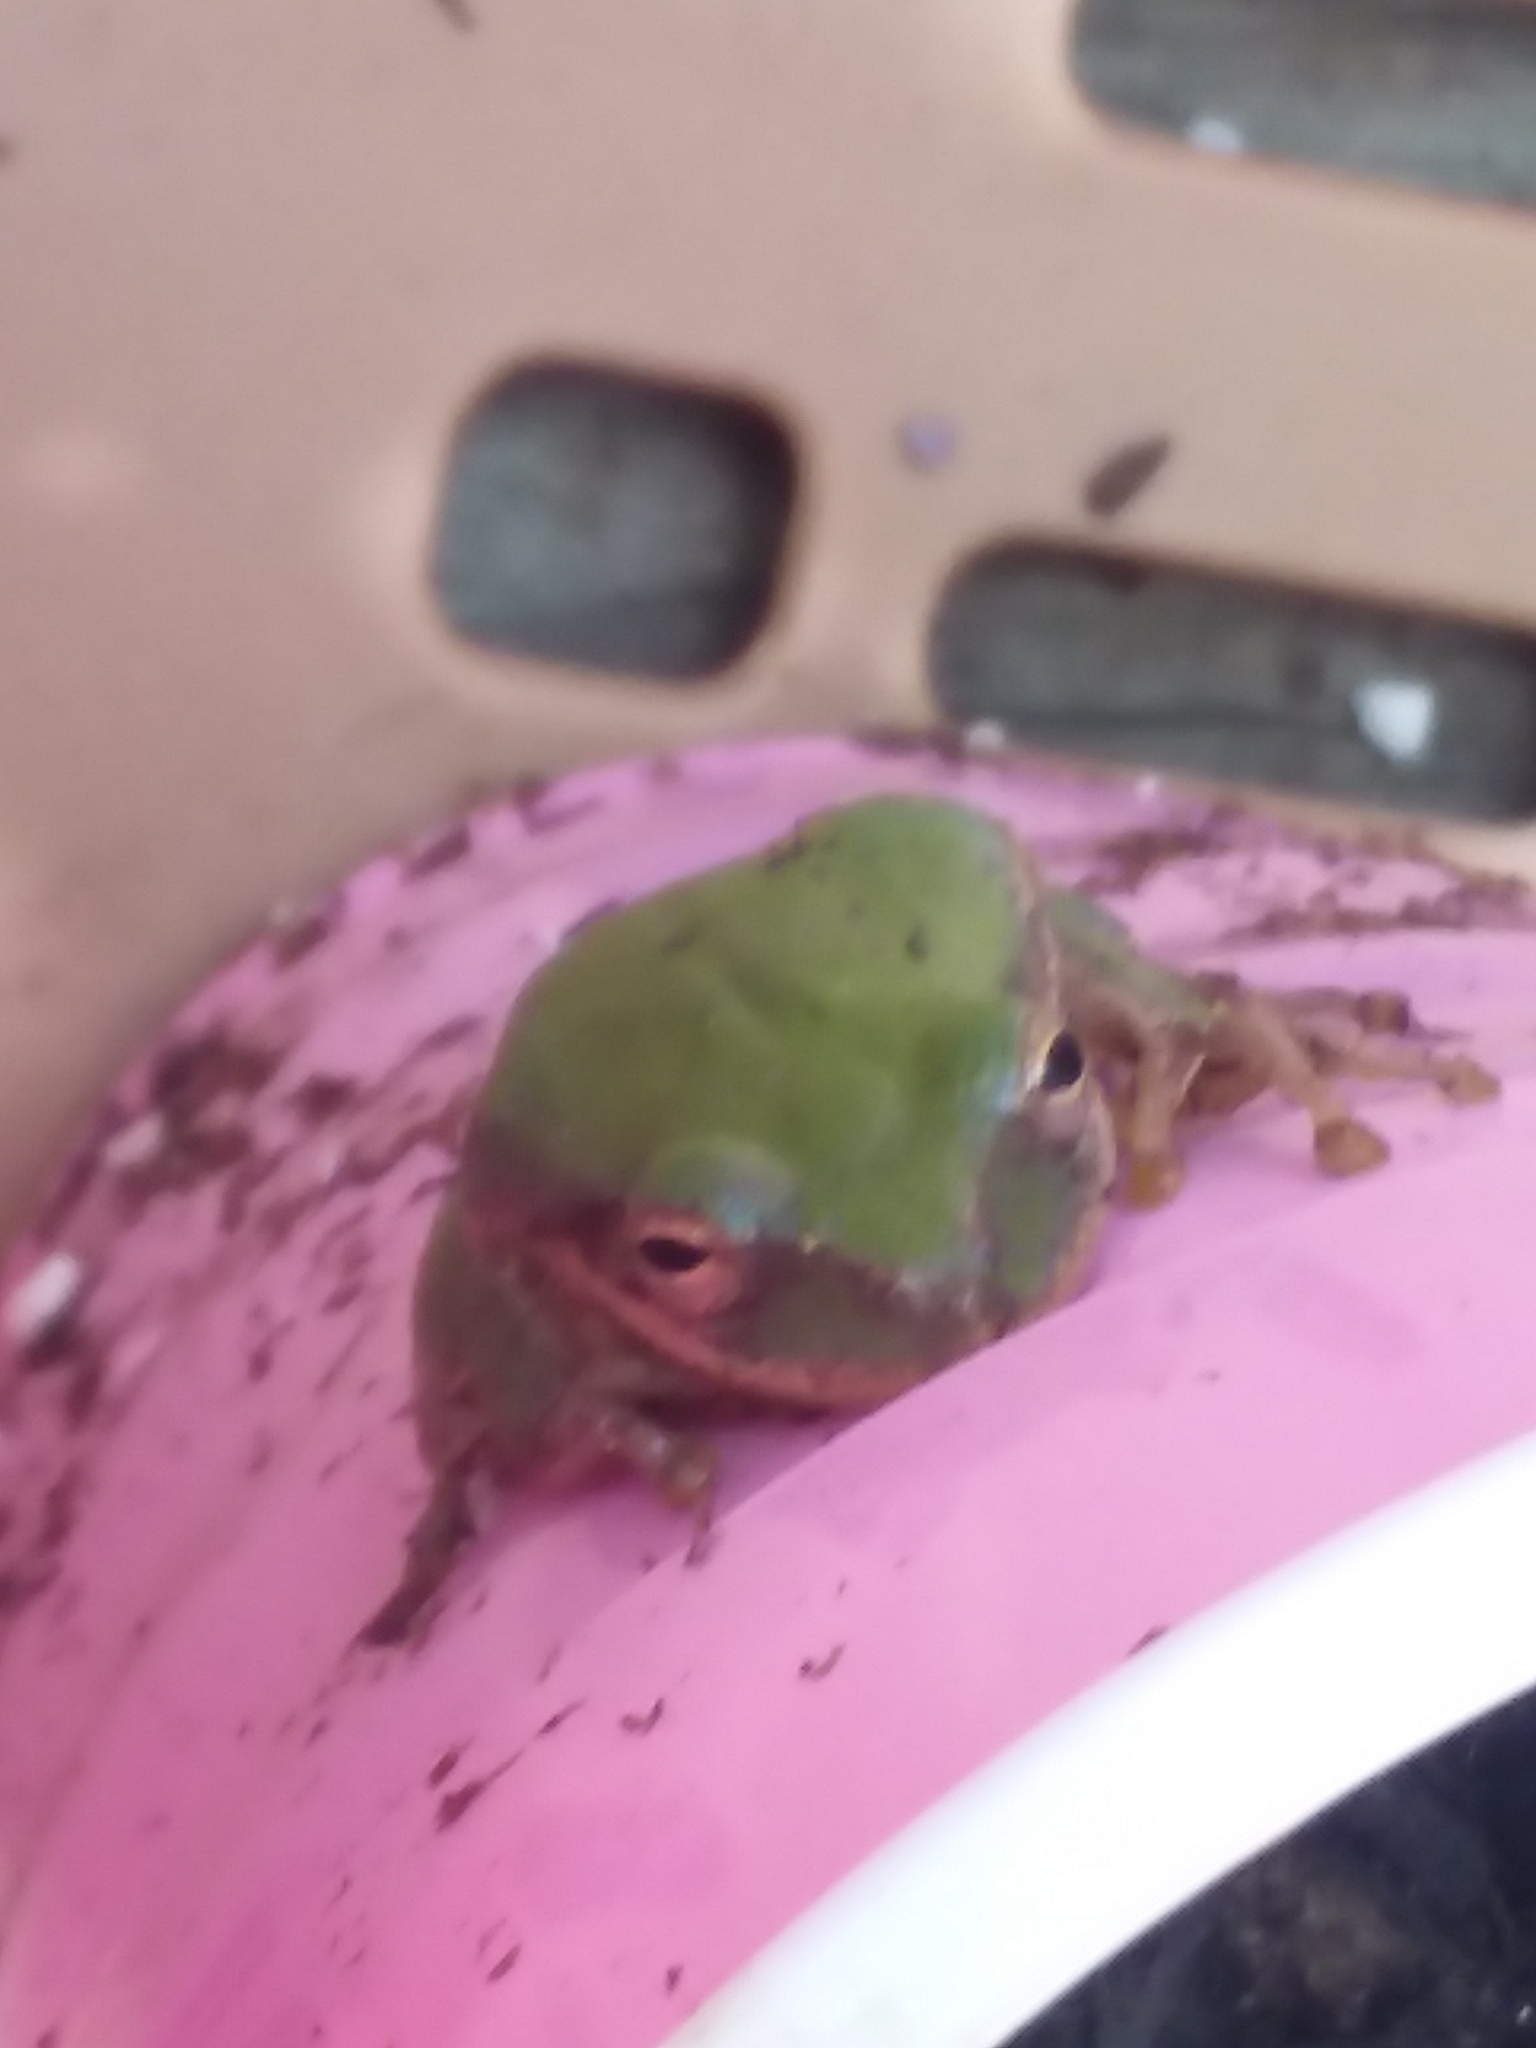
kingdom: Animalia
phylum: Chordata
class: Amphibia
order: Anura
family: Hylidae
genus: Dryophytes
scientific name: Dryophytes squirellus
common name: Squirrel treefrog
